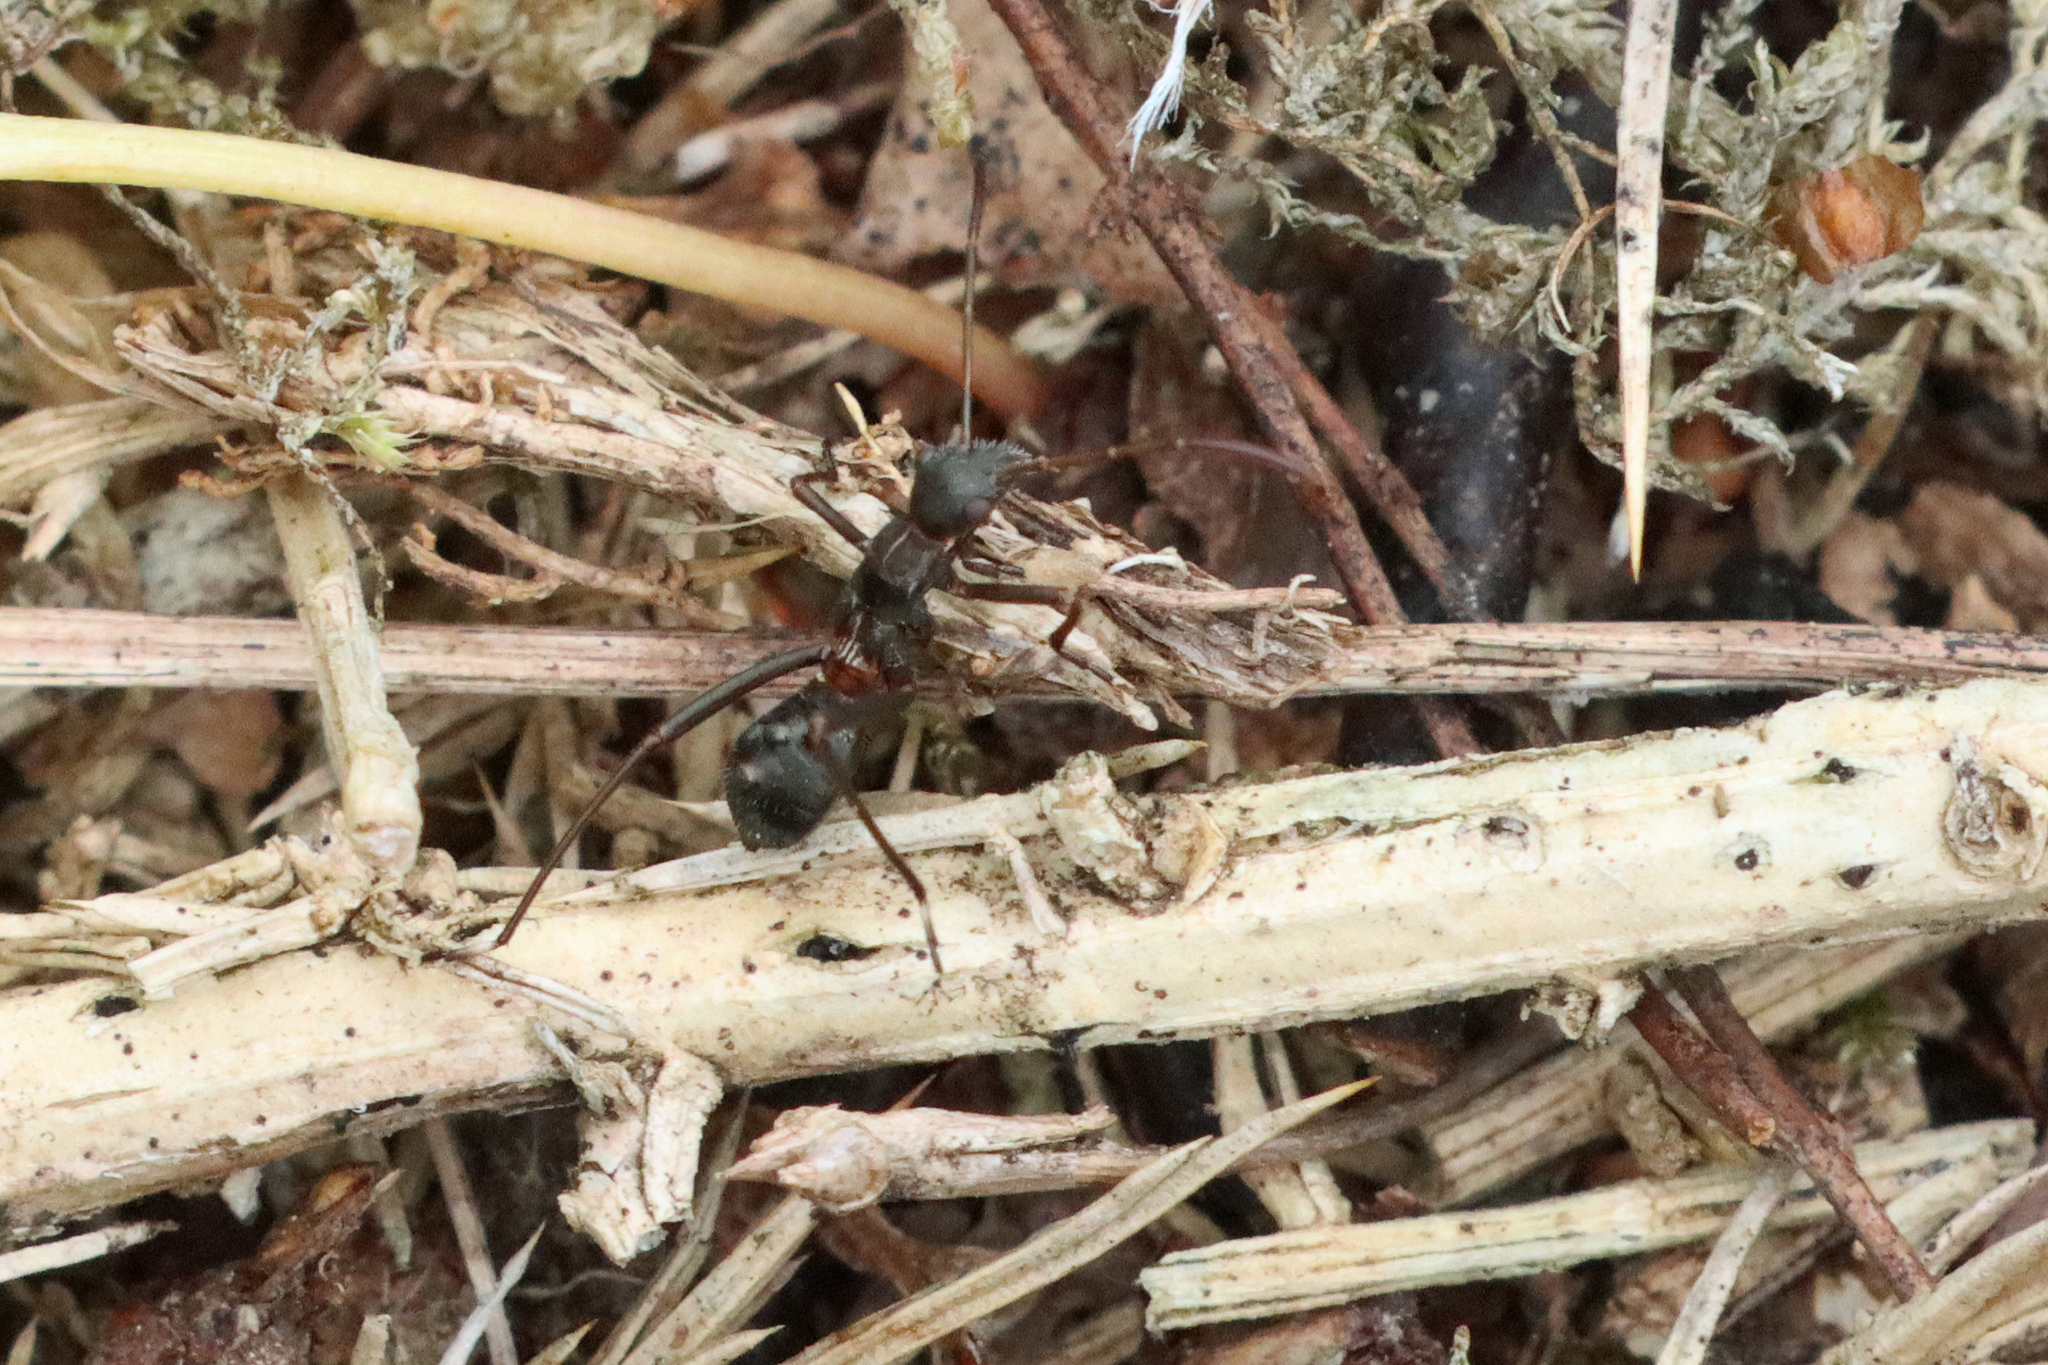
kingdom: Animalia
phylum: Arthropoda
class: Insecta
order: Hemiptera
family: Alydidae
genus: Alydus
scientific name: Alydus calcaratus
